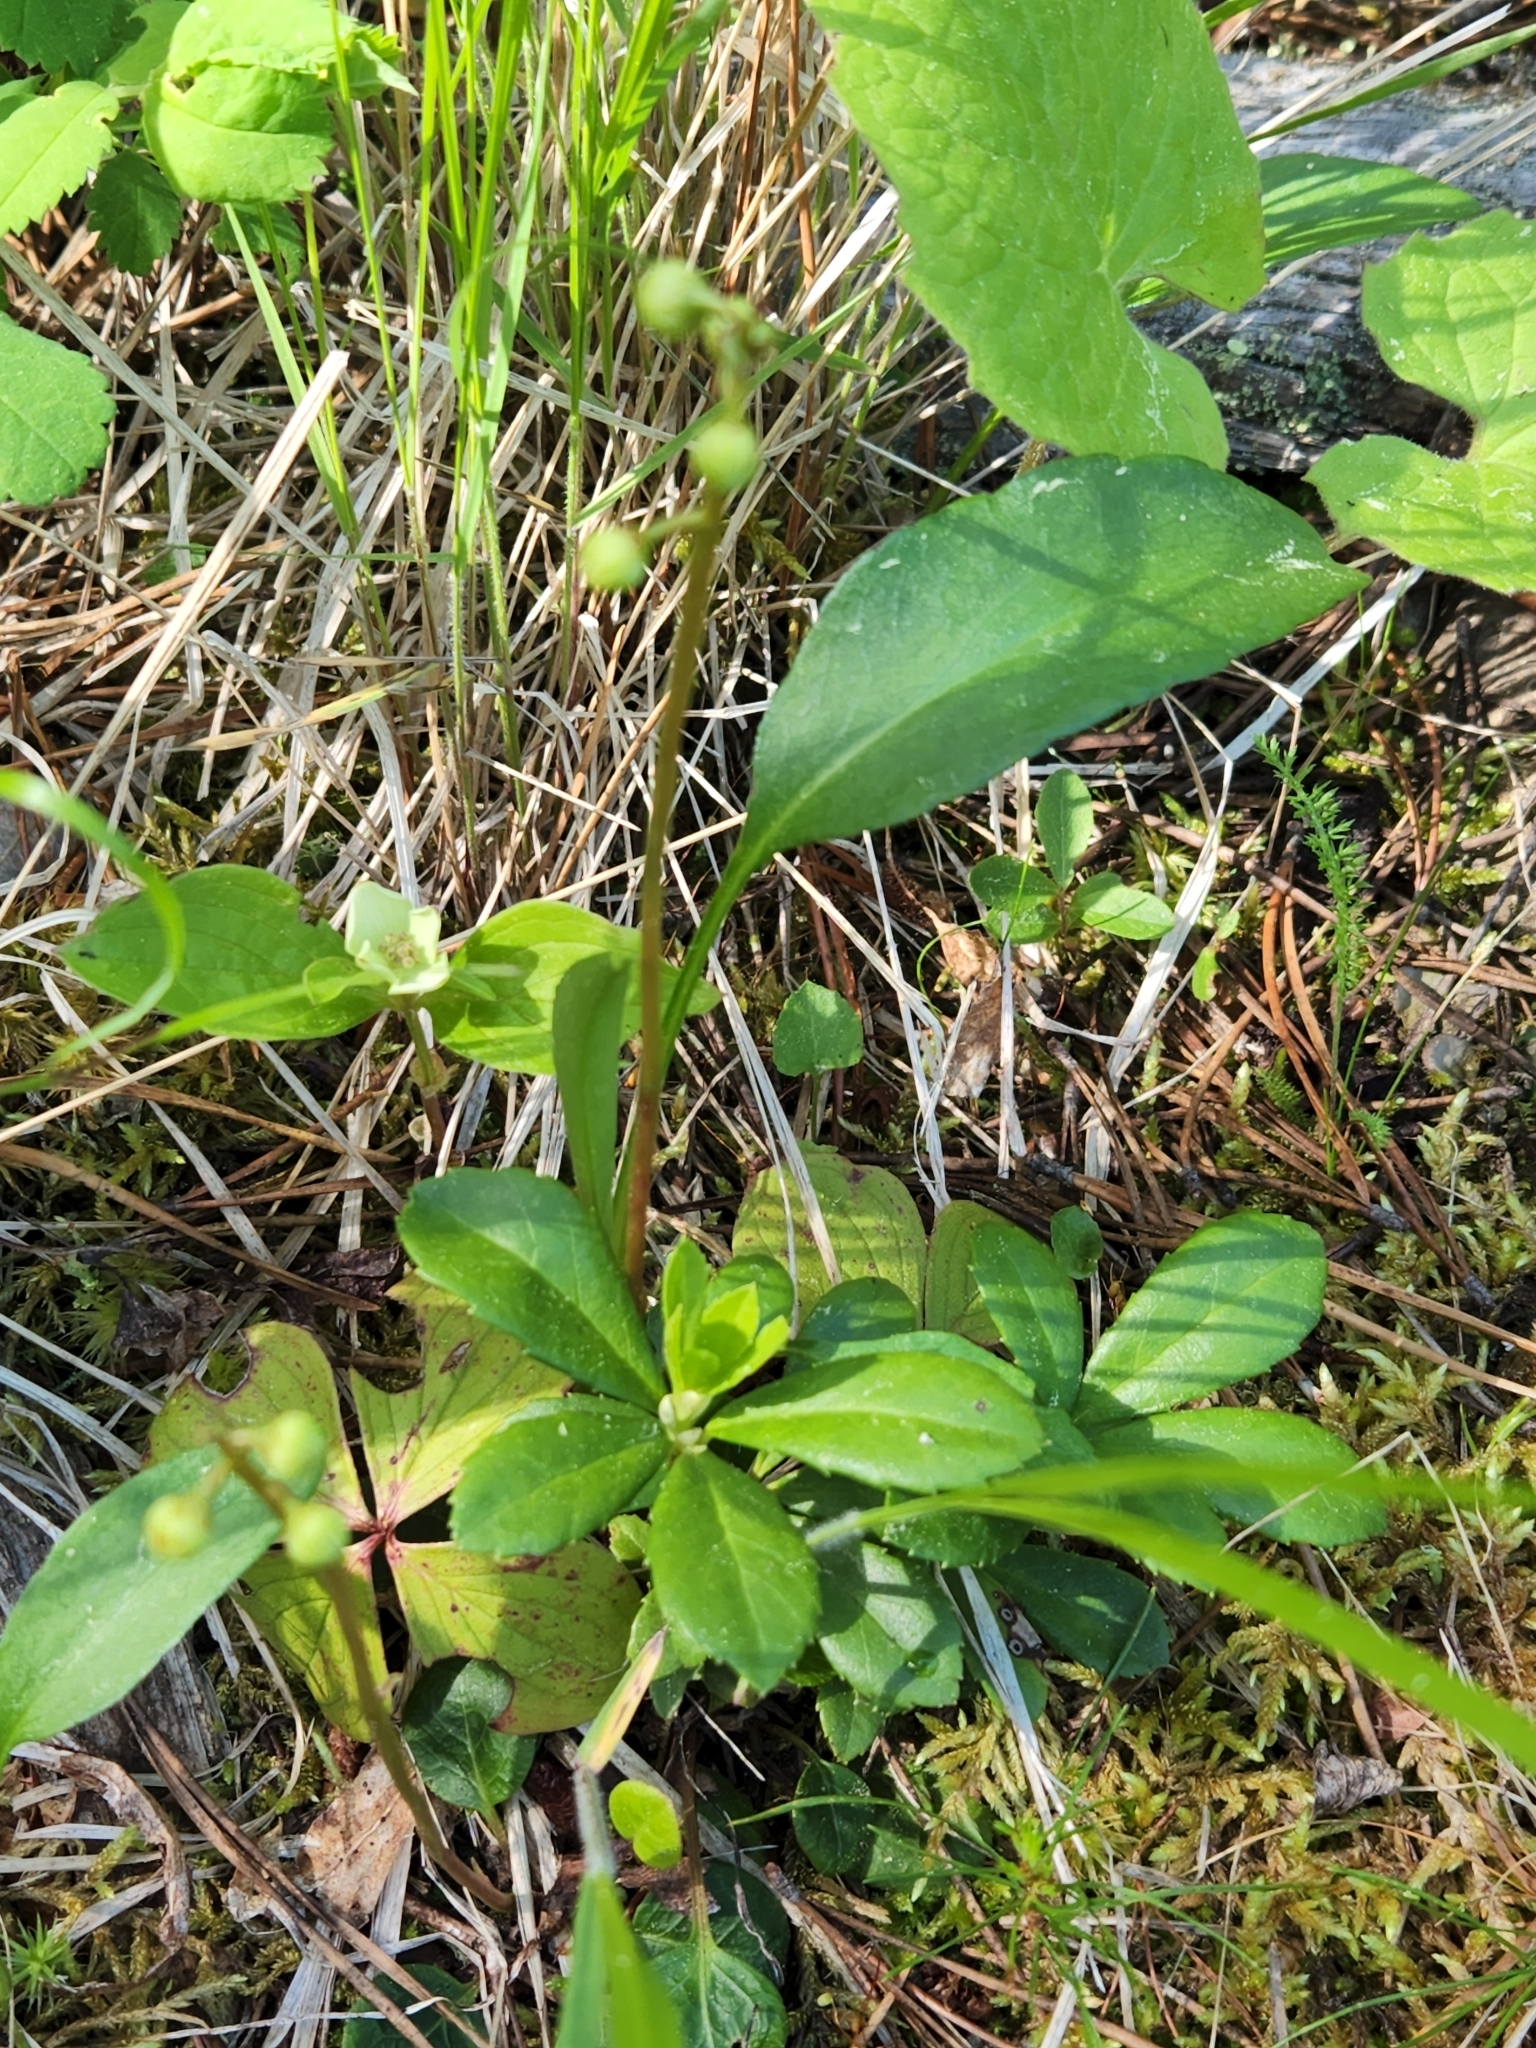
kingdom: Plantae
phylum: Tracheophyta
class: Magnoliopsida
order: Ericales
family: Ericaceae
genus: Pyrola
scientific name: Pyrola chlorantha
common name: Green wintergreen
